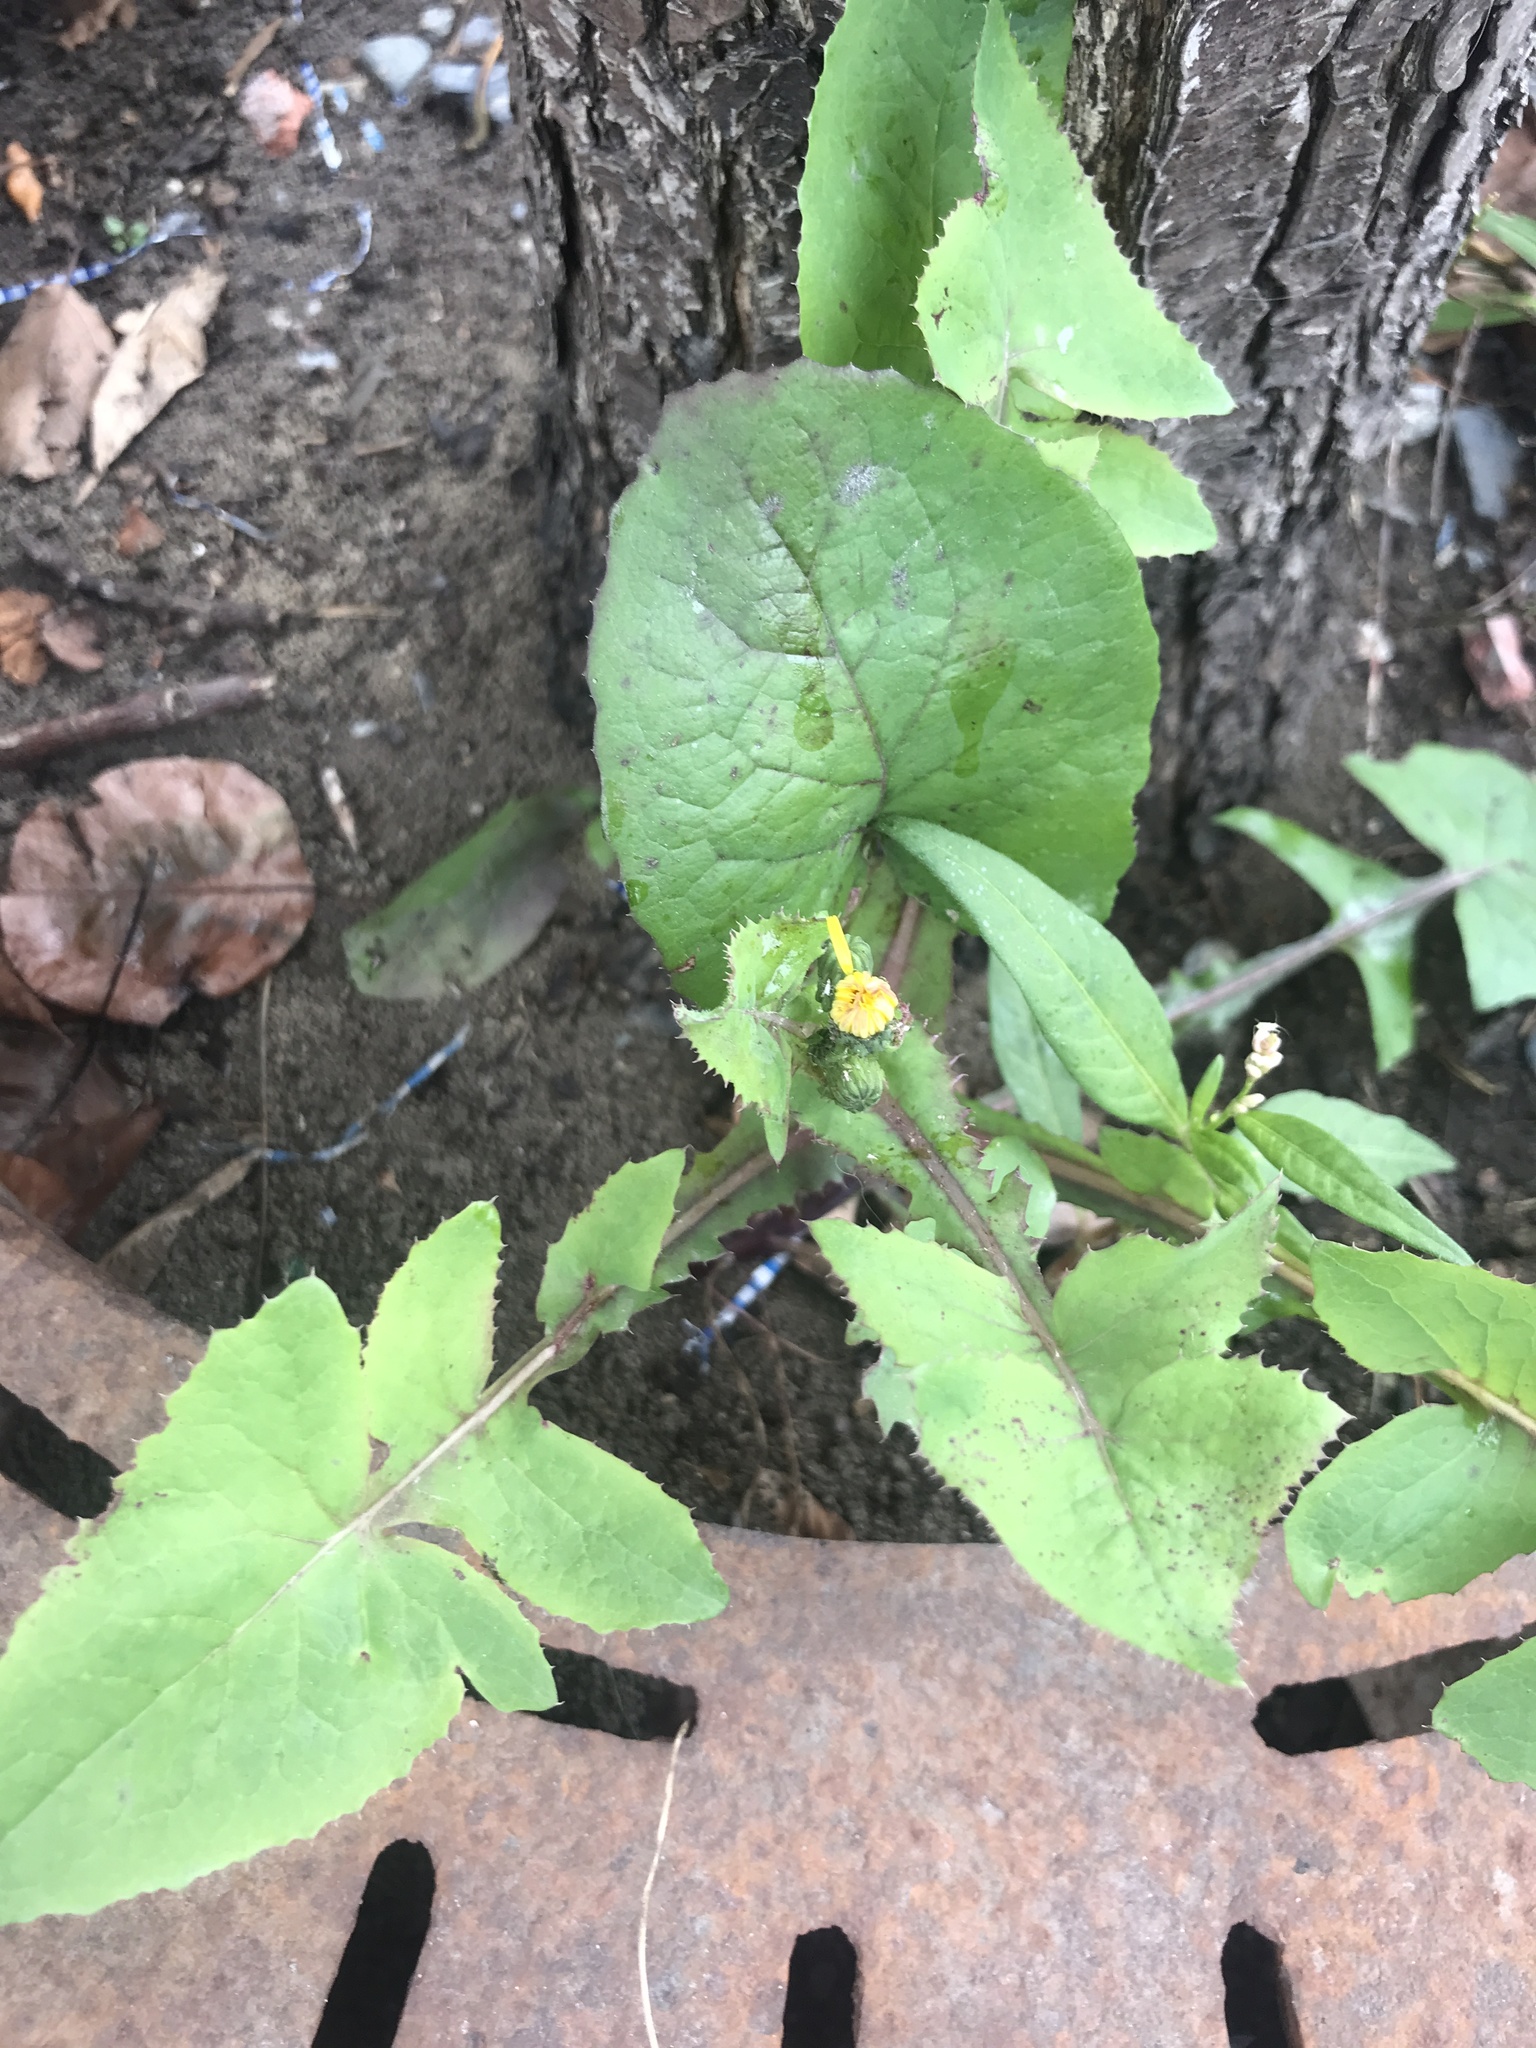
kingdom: Plantae
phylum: Tracheophyta
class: Magnoliopsida
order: Asterales
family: Asteraceae
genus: Sonchus
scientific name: Sonchus oleraceus
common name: Common sowthistle
